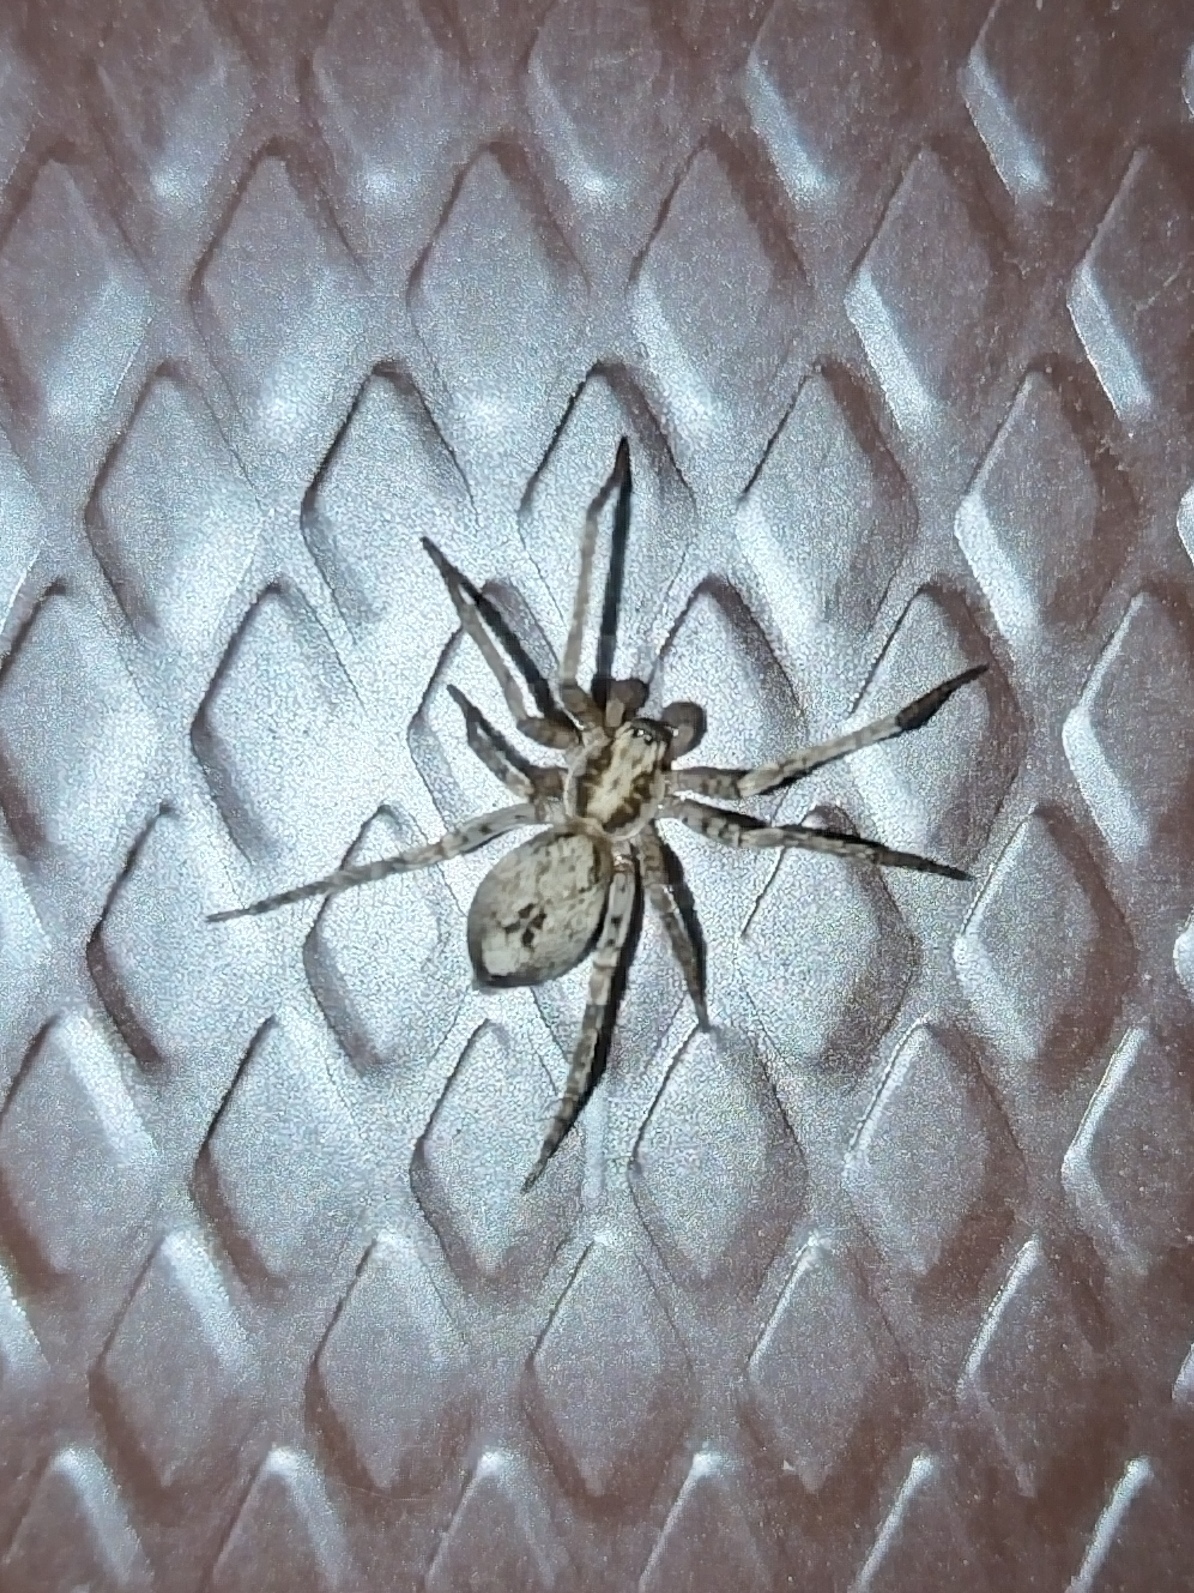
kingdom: Animalia
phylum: Arthropoda
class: Arachnida
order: Araneae
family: Anyphaenidae
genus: Anyphaena
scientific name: Anyphaena accentuata
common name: Buzzing spider
